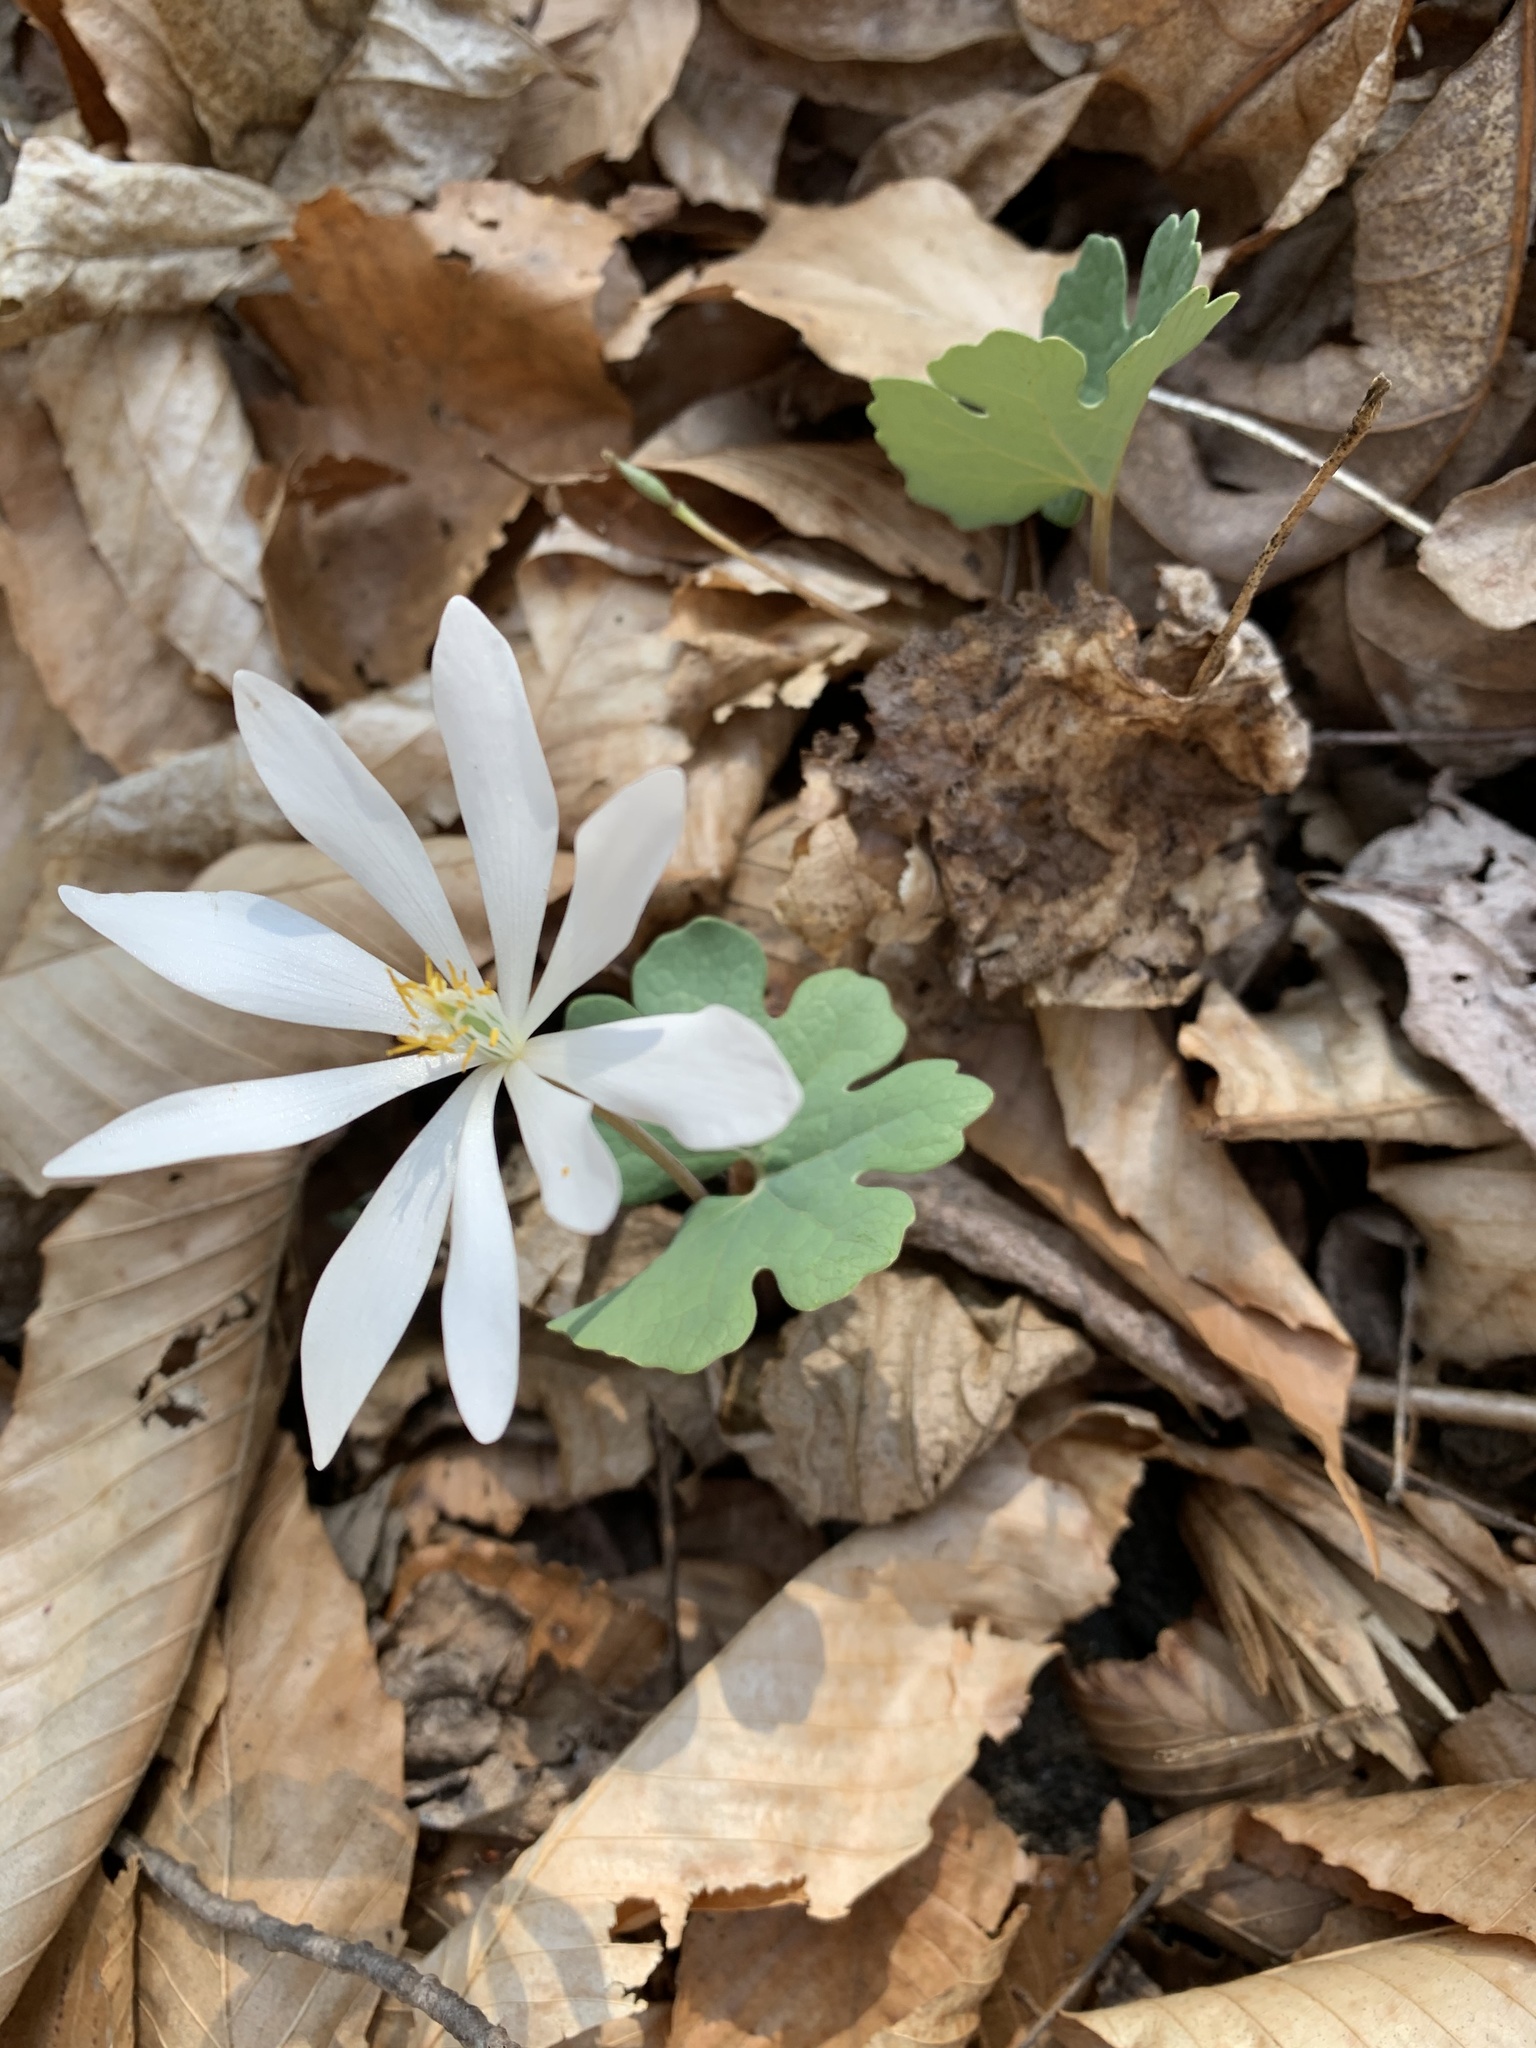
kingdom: Plantae
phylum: Tracheophyta
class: Magnoliopsida
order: Ranunculales
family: Papaveraceae
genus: Sanguinaria
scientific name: Sanguinaria canadensis
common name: Bloodroot
